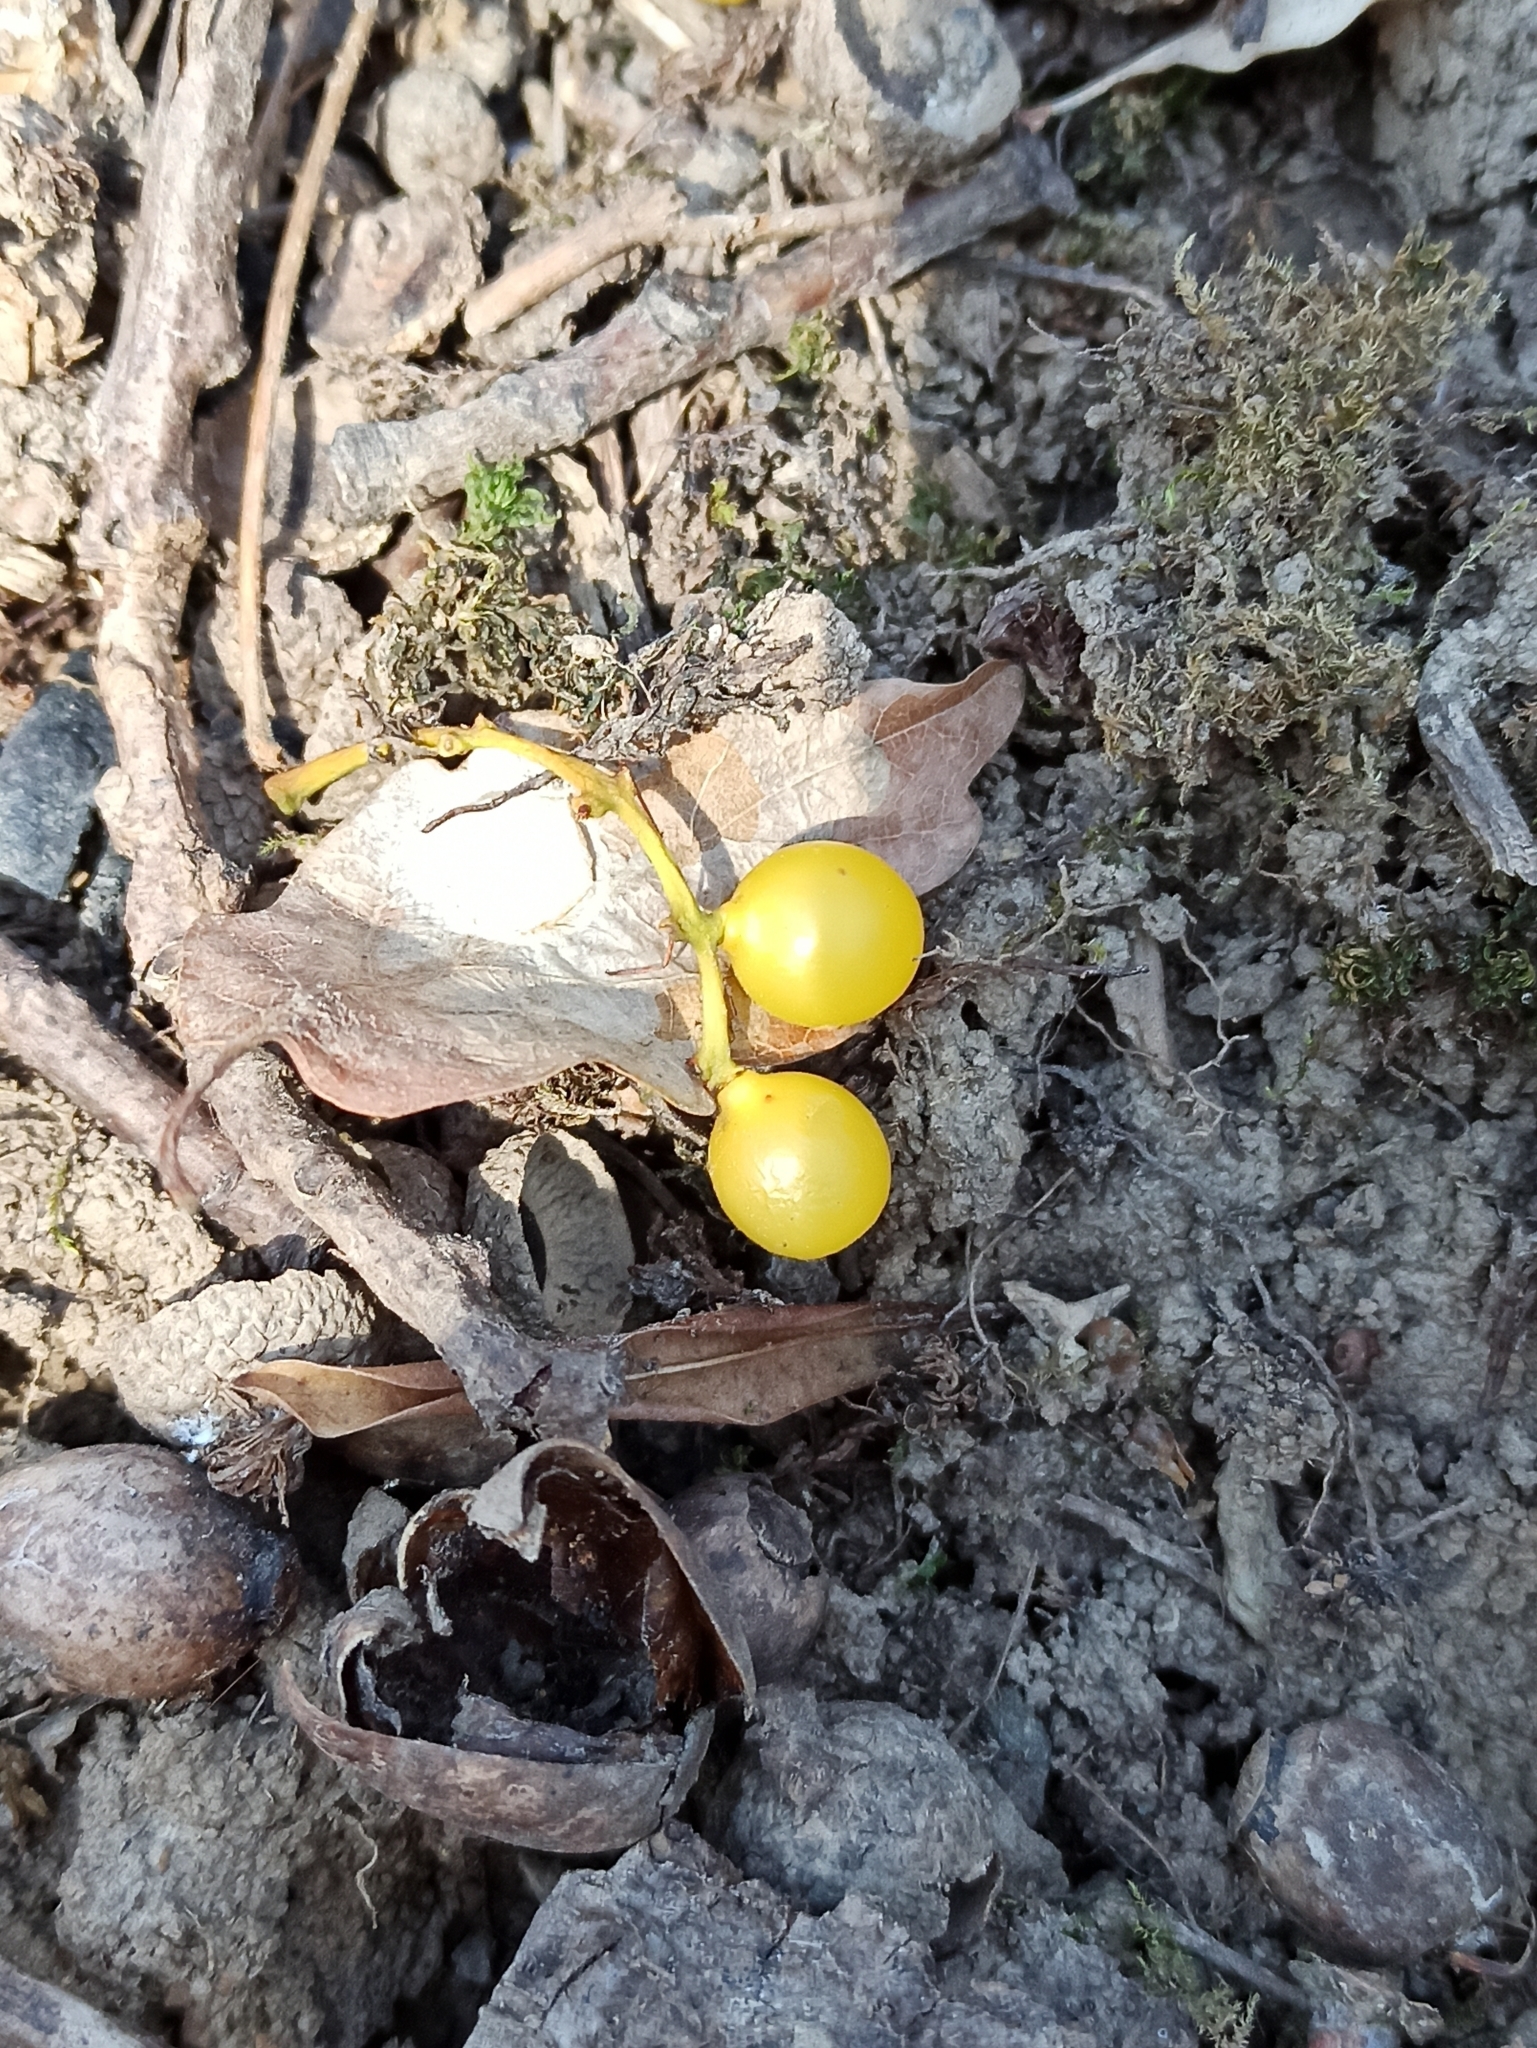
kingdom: Plantae
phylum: Tracheophyta
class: Magnoliopsida
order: Santalales
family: Loranthaceae
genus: Loranthus
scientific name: Loranthus europaeus
